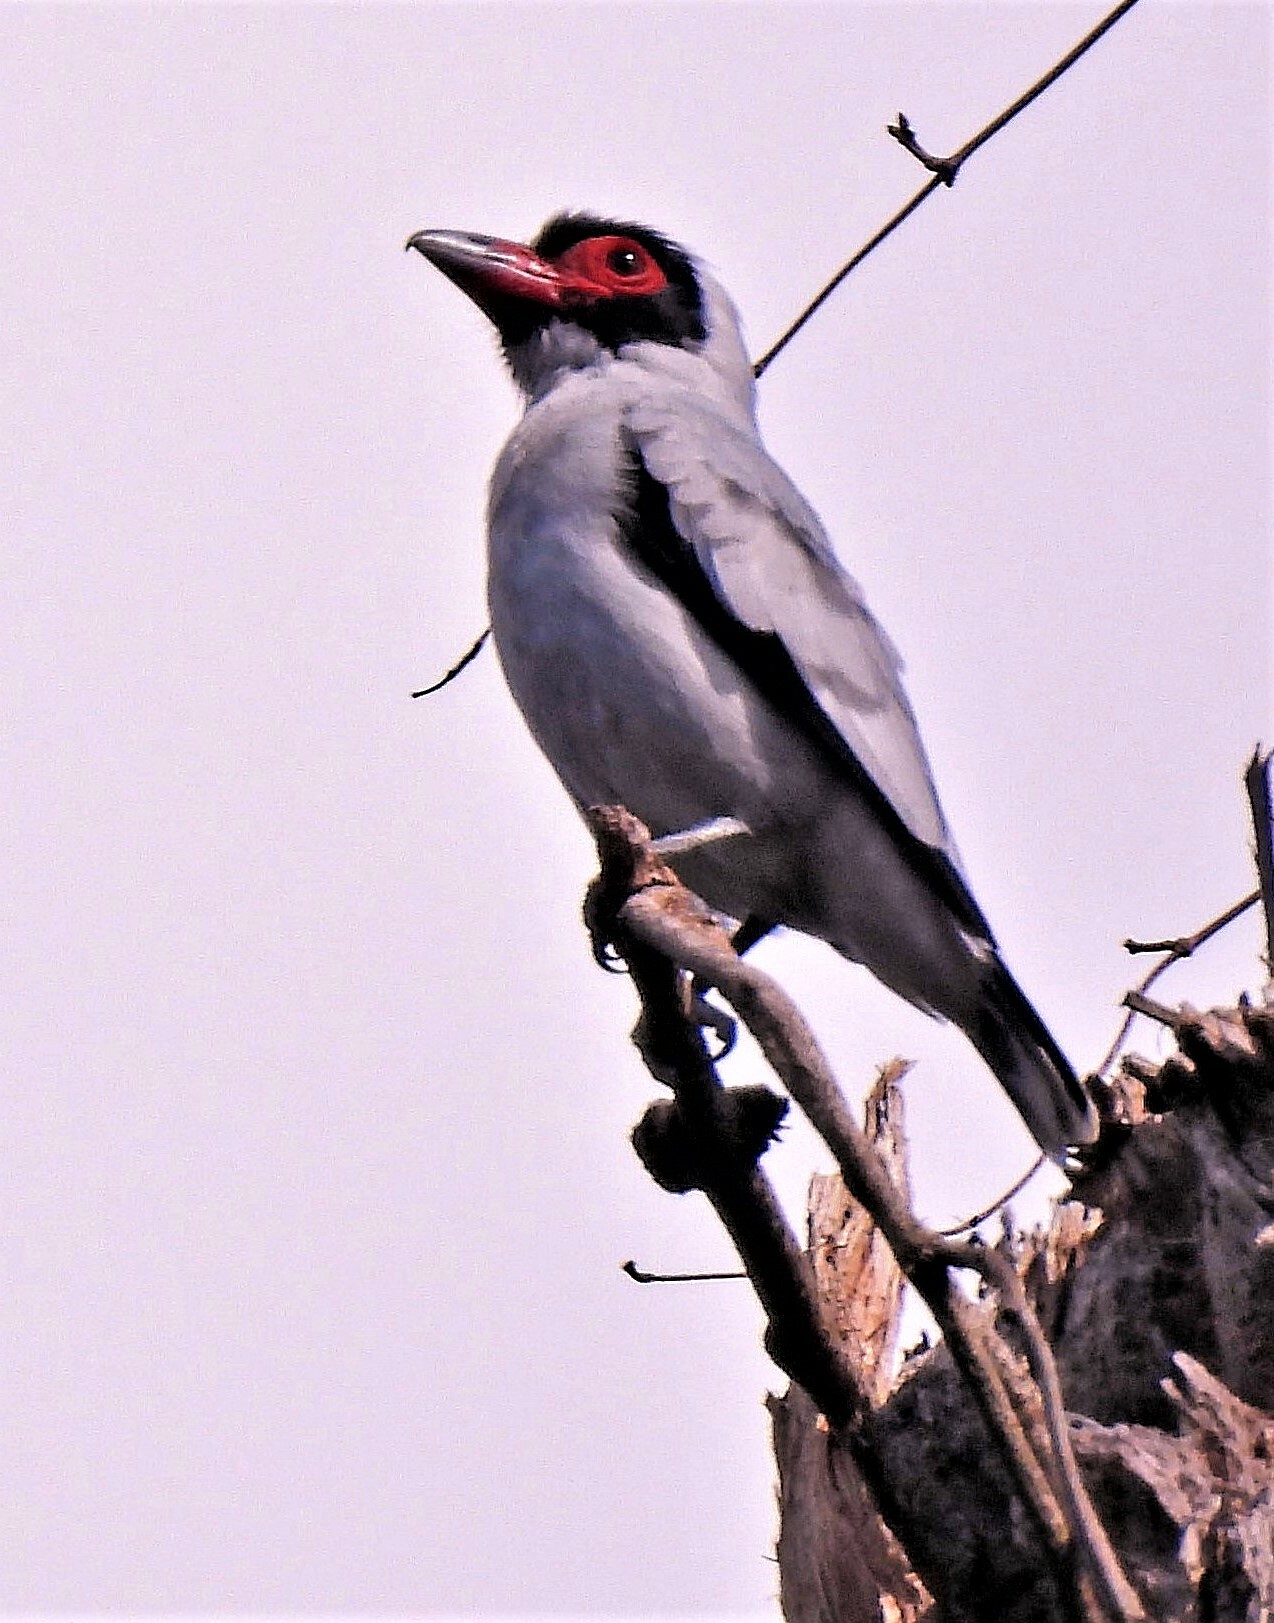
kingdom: Animalia
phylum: Chordata
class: Aves
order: Passeriformes
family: Cotingidae
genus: Tityra
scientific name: Tityra semifasciata
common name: Masked tityra
